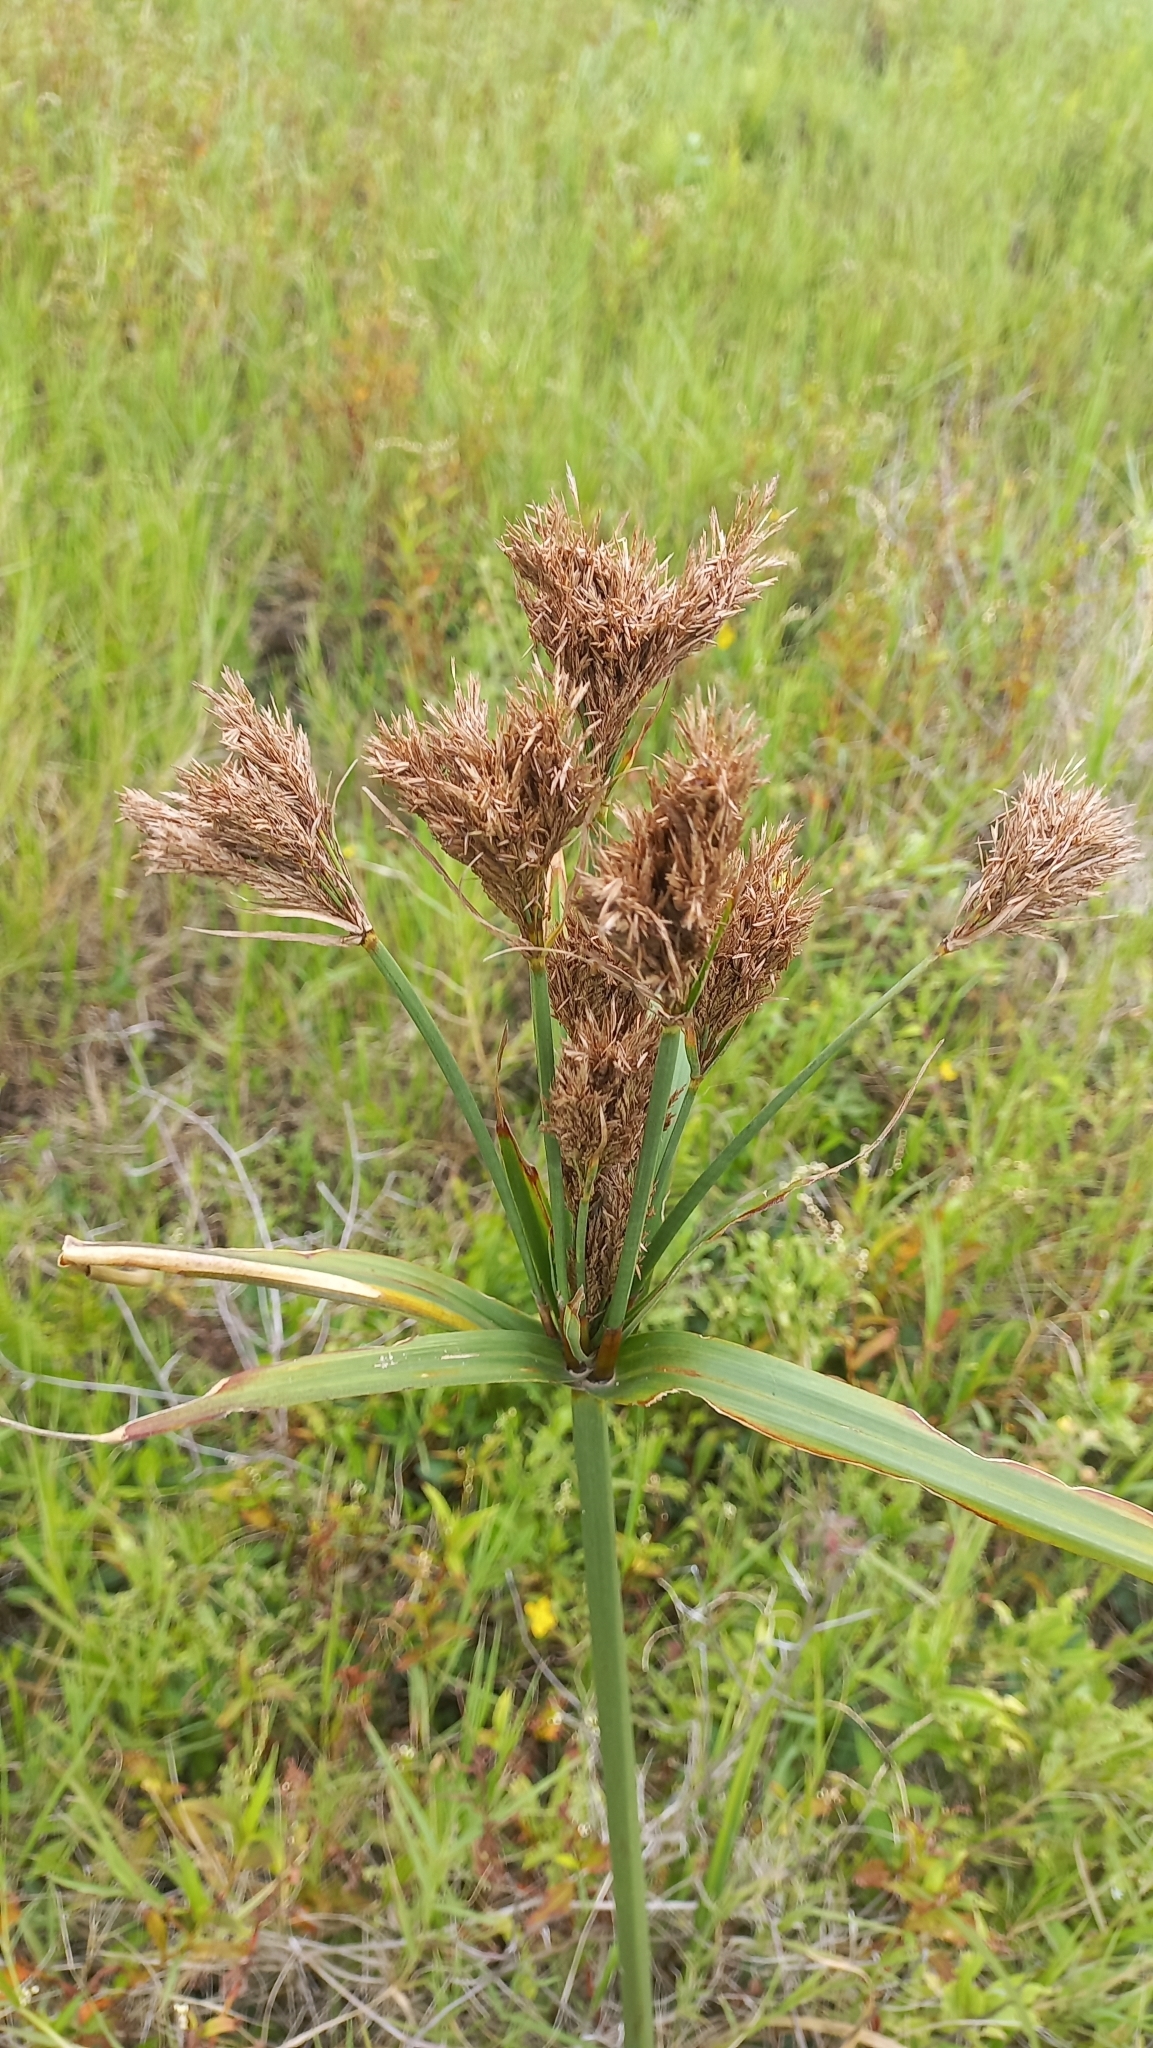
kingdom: Plantae
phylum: Tracheophyta
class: Liliopsida
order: Poales
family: Cyperaceae
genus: Cyperus
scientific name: Cyperus prolixus
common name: Mosquito flatsedge
